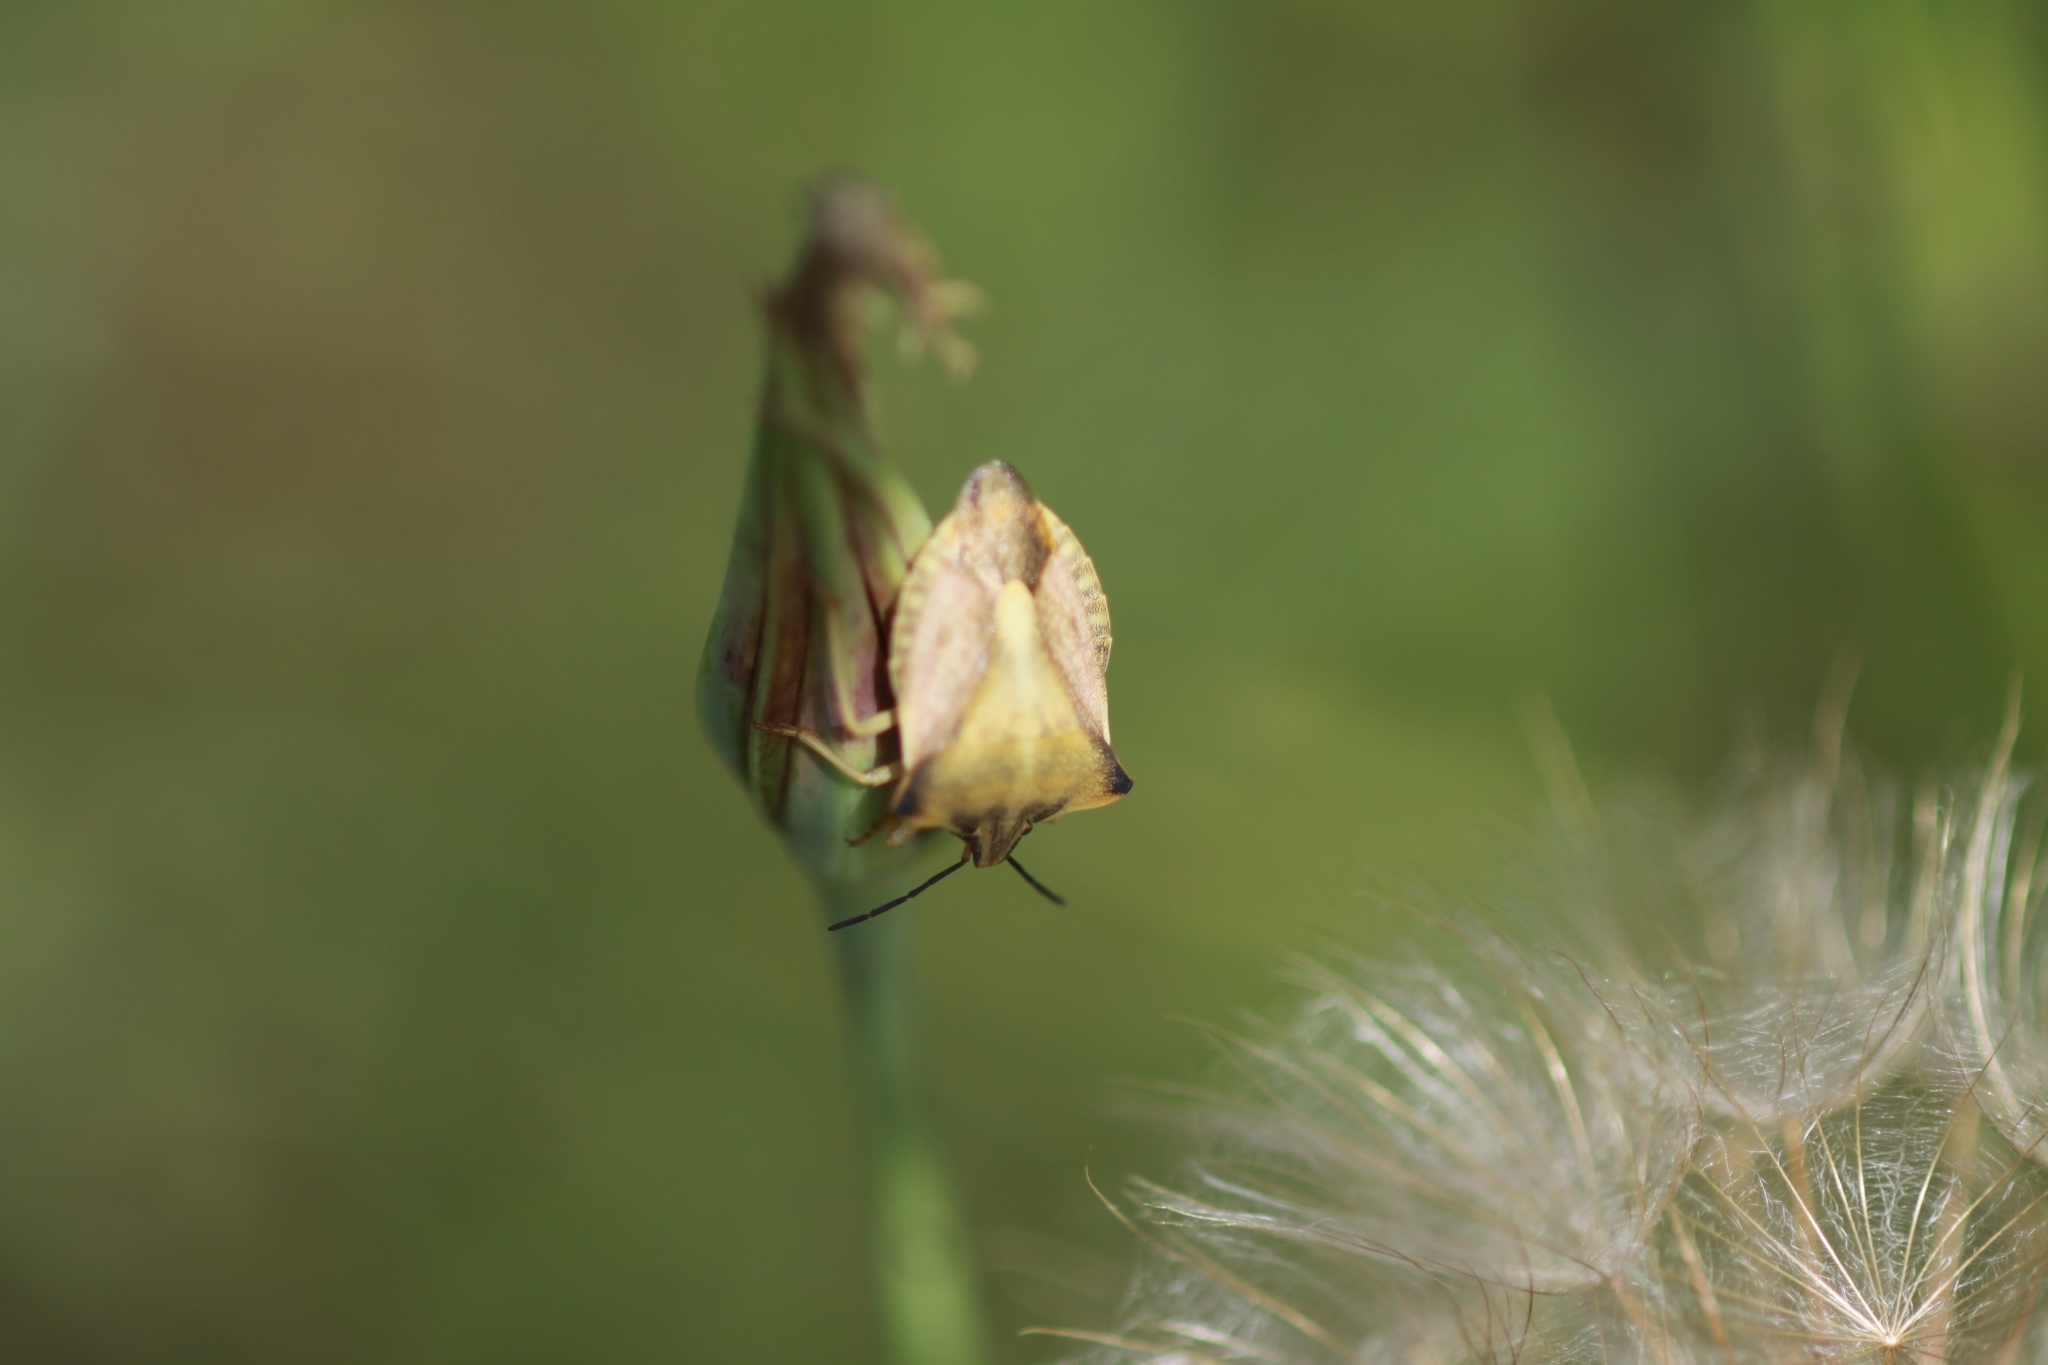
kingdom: Animalia
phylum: Arthropoda
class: Insecta
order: Hemiptera
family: Pentatomidae
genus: Carpocoris
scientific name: Carpocoris fuscispinus
